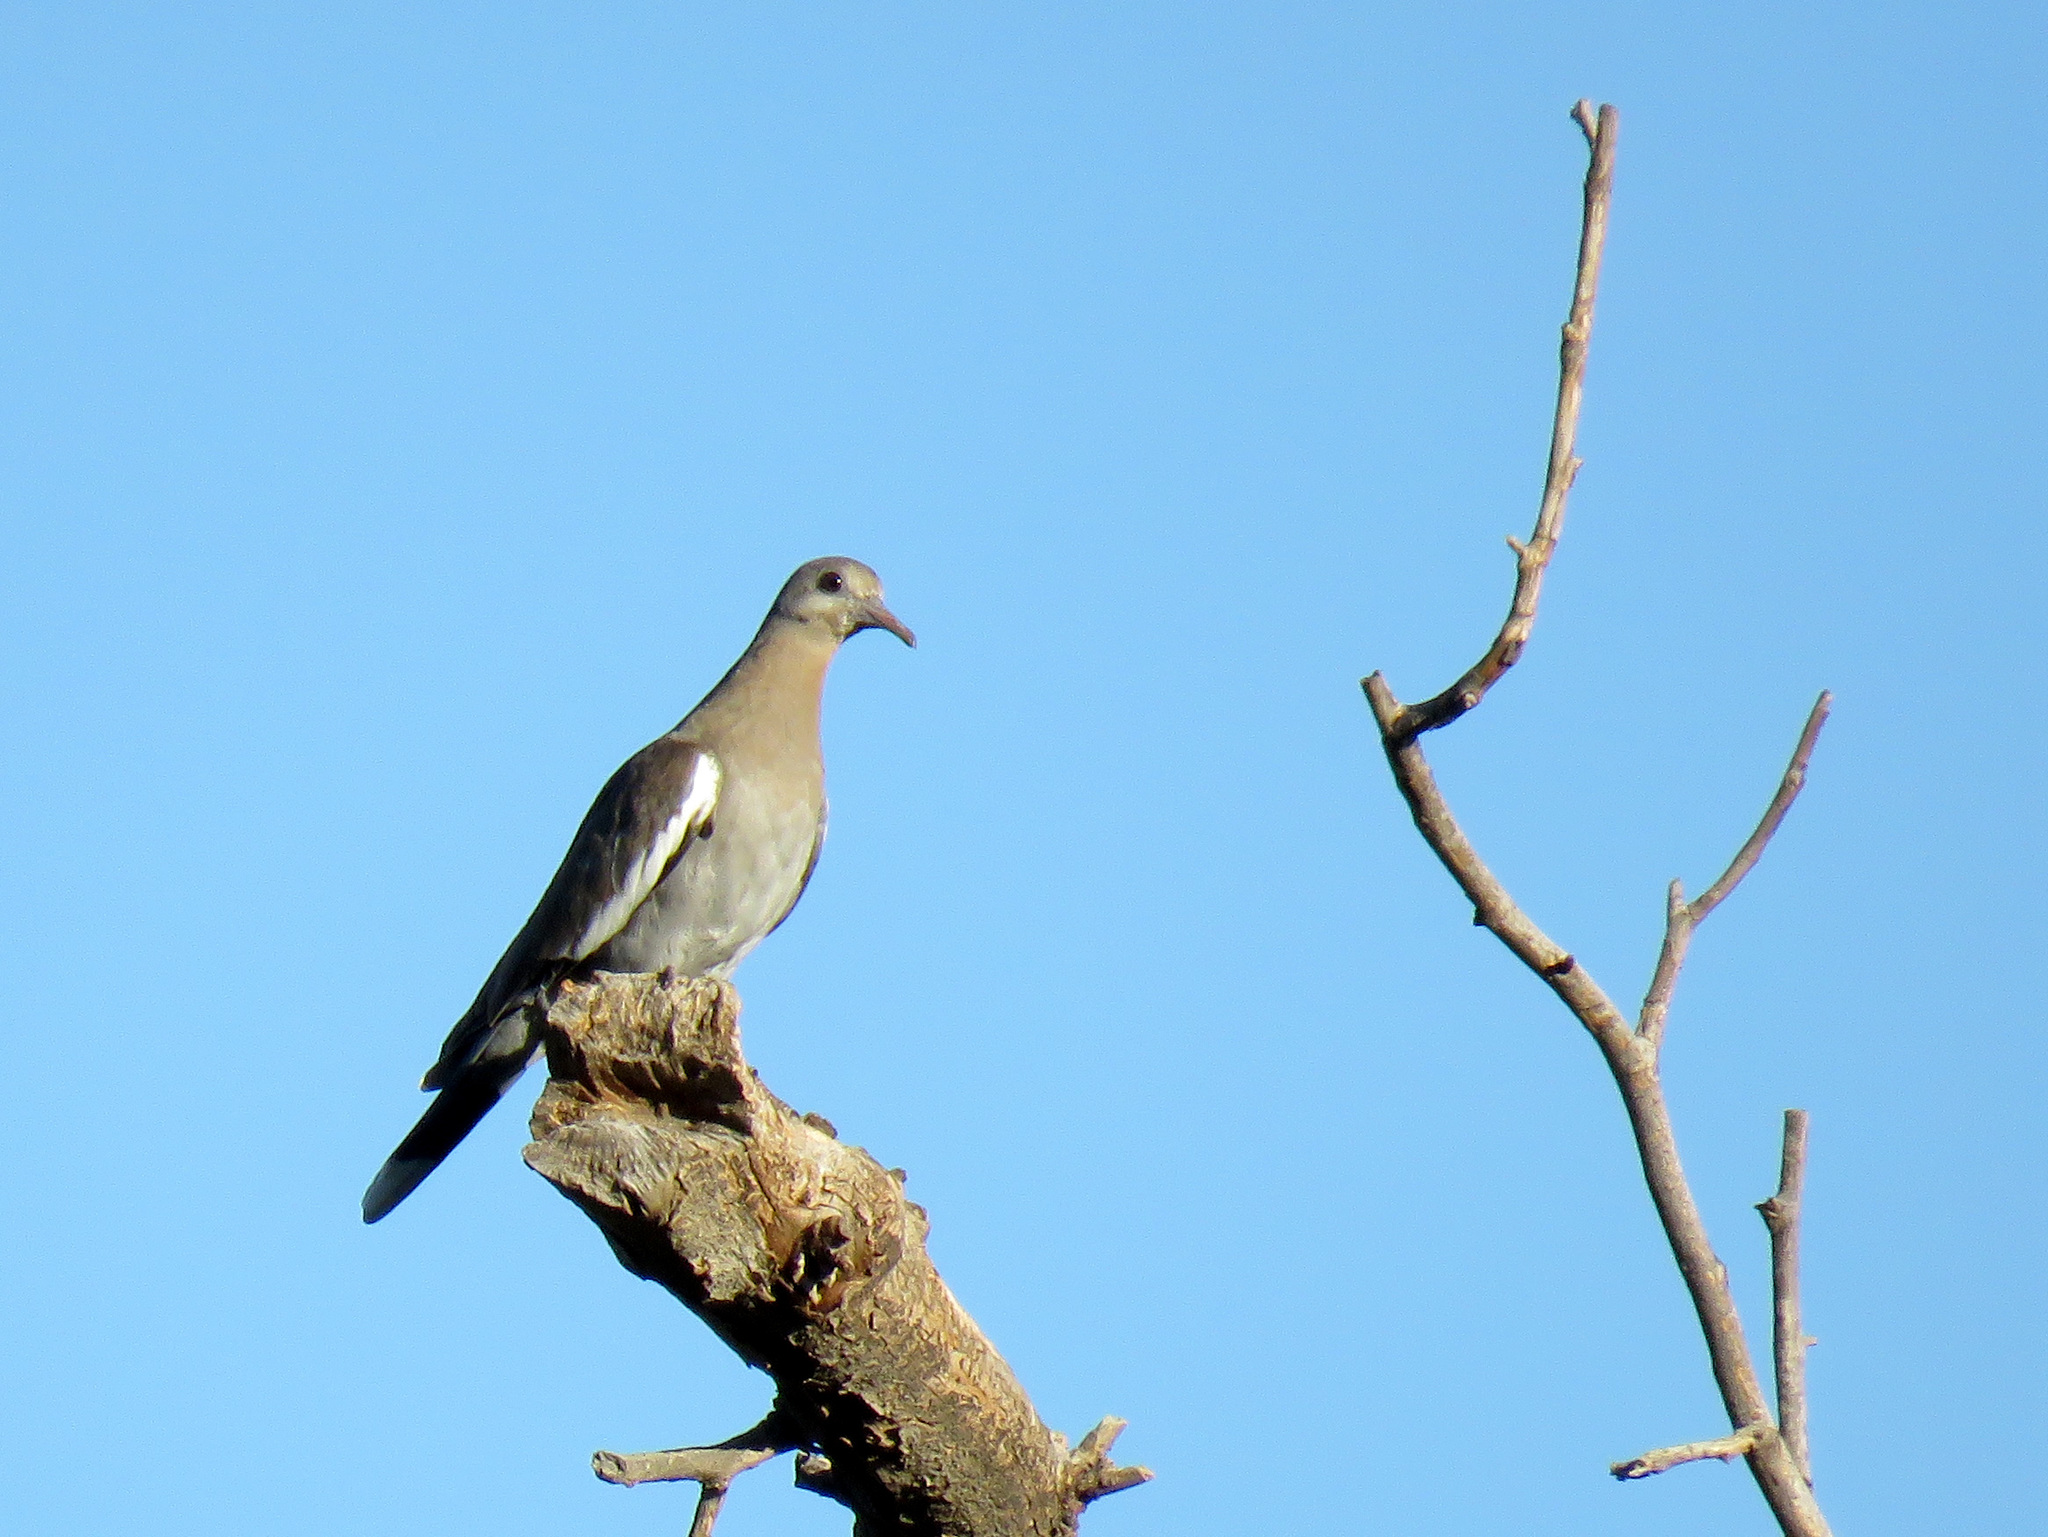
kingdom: Animalia
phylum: Chordata
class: Aves
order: Columbiformes
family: Columbidae
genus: Zenaida
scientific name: Zenaida asiatica
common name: White-winged dove
